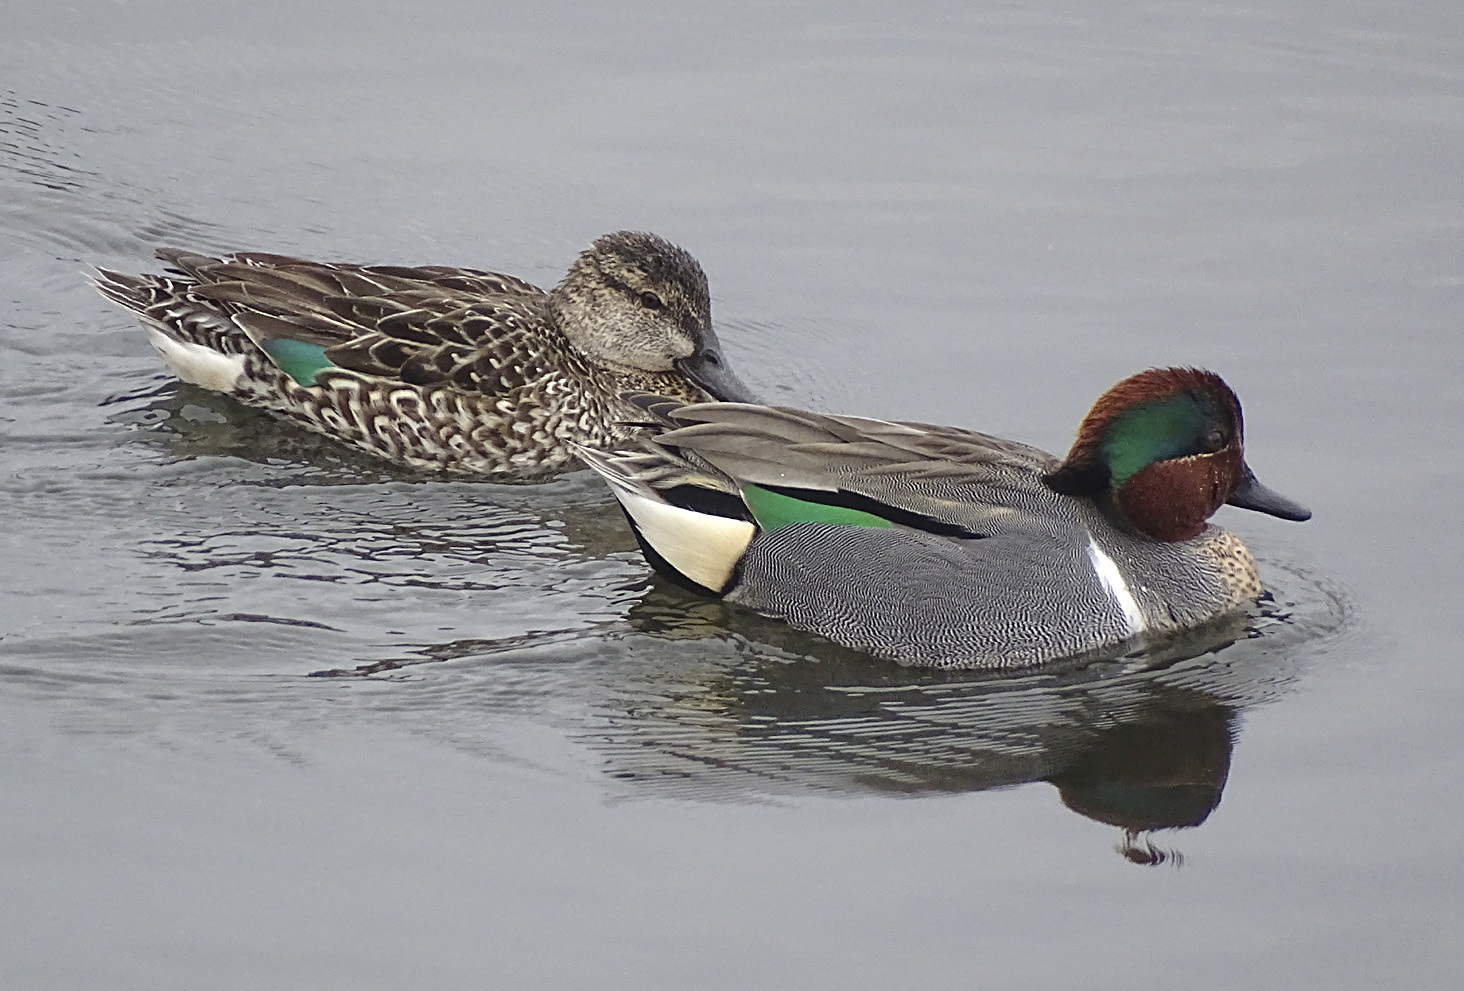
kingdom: Animalia
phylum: Chordata
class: Aves
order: Anseriformes
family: Anatidae
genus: Anas
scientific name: Anas crecca
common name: Eurasian teal
